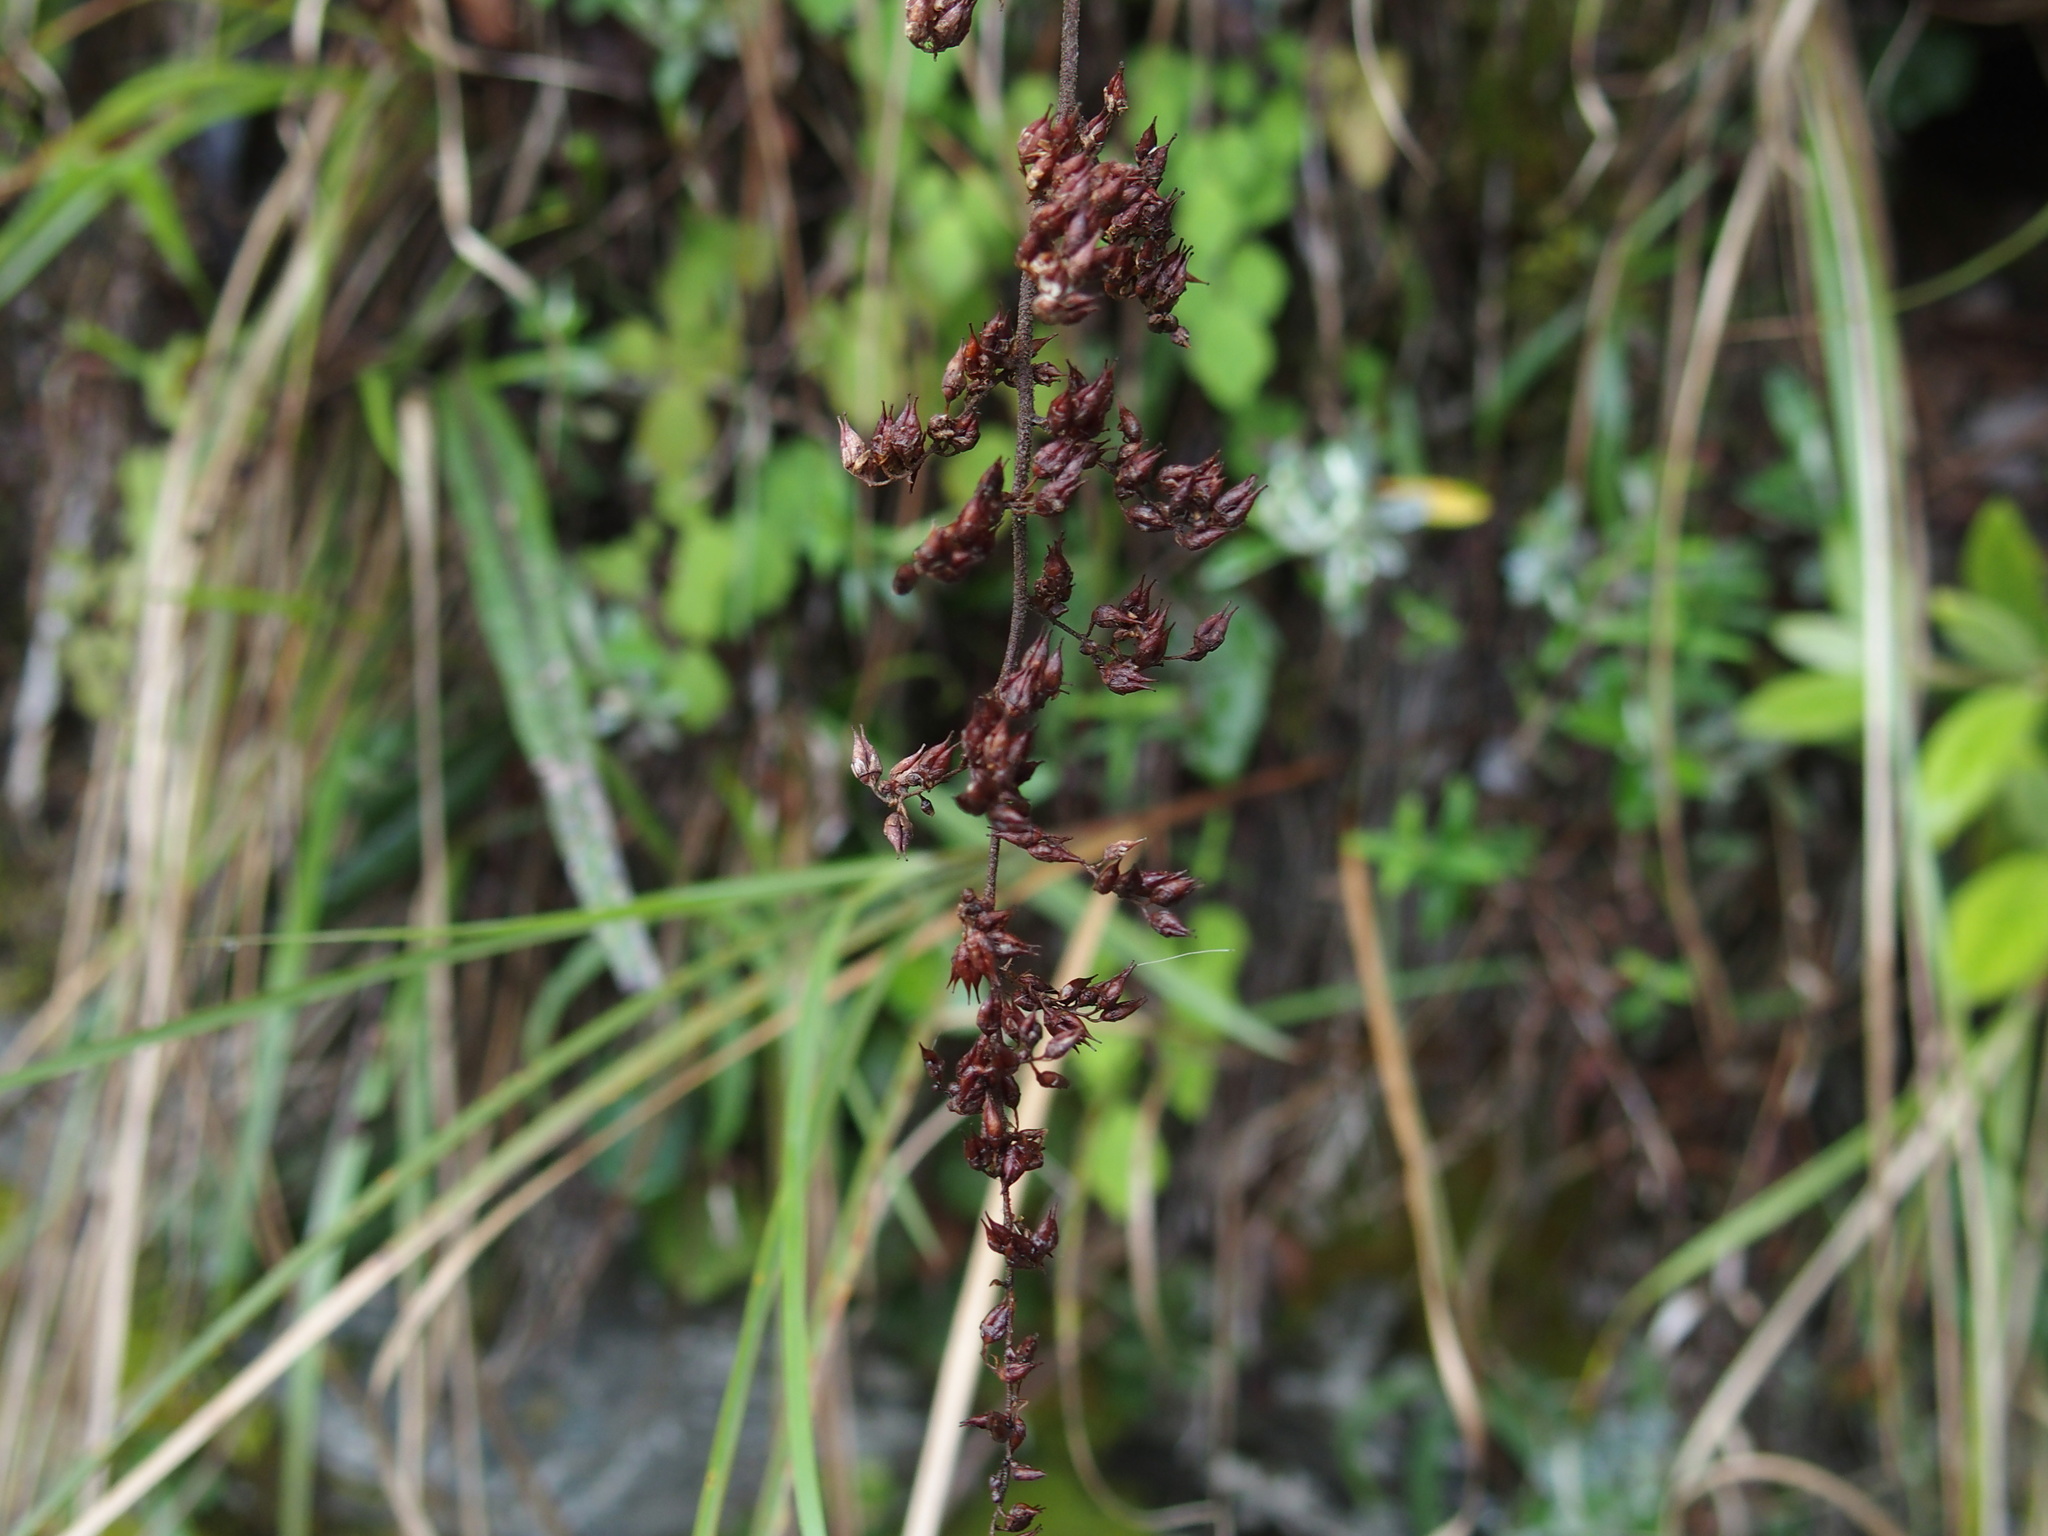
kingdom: Plantae
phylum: Tracheophyta
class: Magnoliopsida
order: Saxifragales
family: Saxifragaceae
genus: Astilbe
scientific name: Astilbe longicarpa
